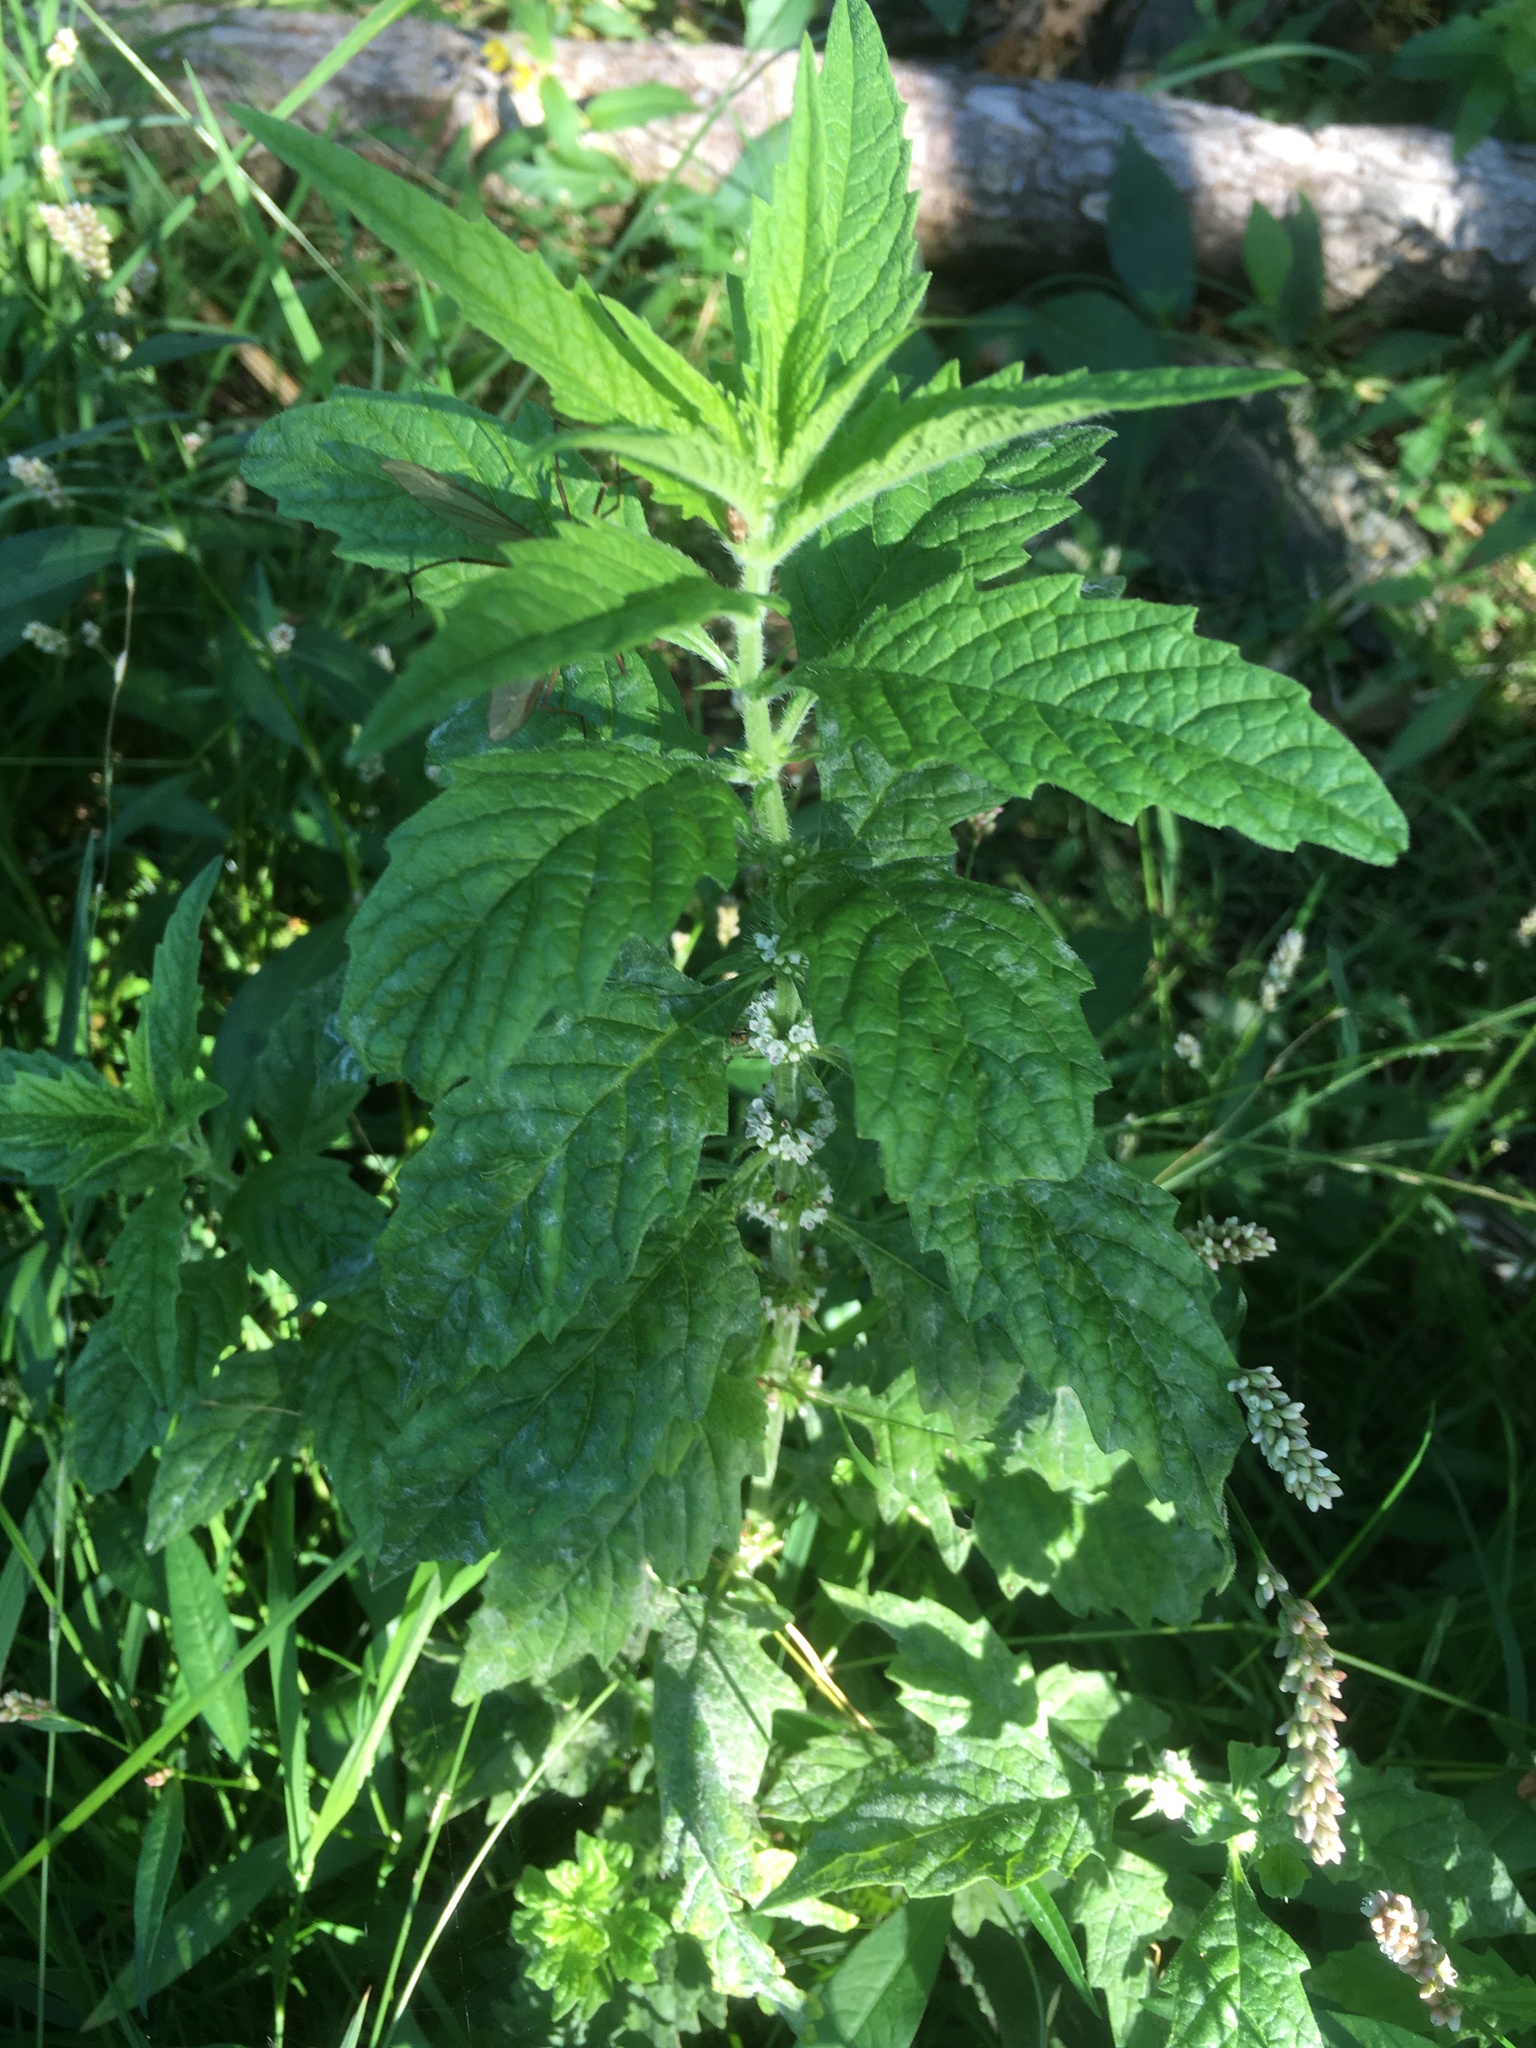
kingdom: Plantae
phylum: Tracheophyta
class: Magnoliopsida
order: Lamiales
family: Lamiaceae
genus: Lycopus
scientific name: Lycopus europaeus
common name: European bugleweed
